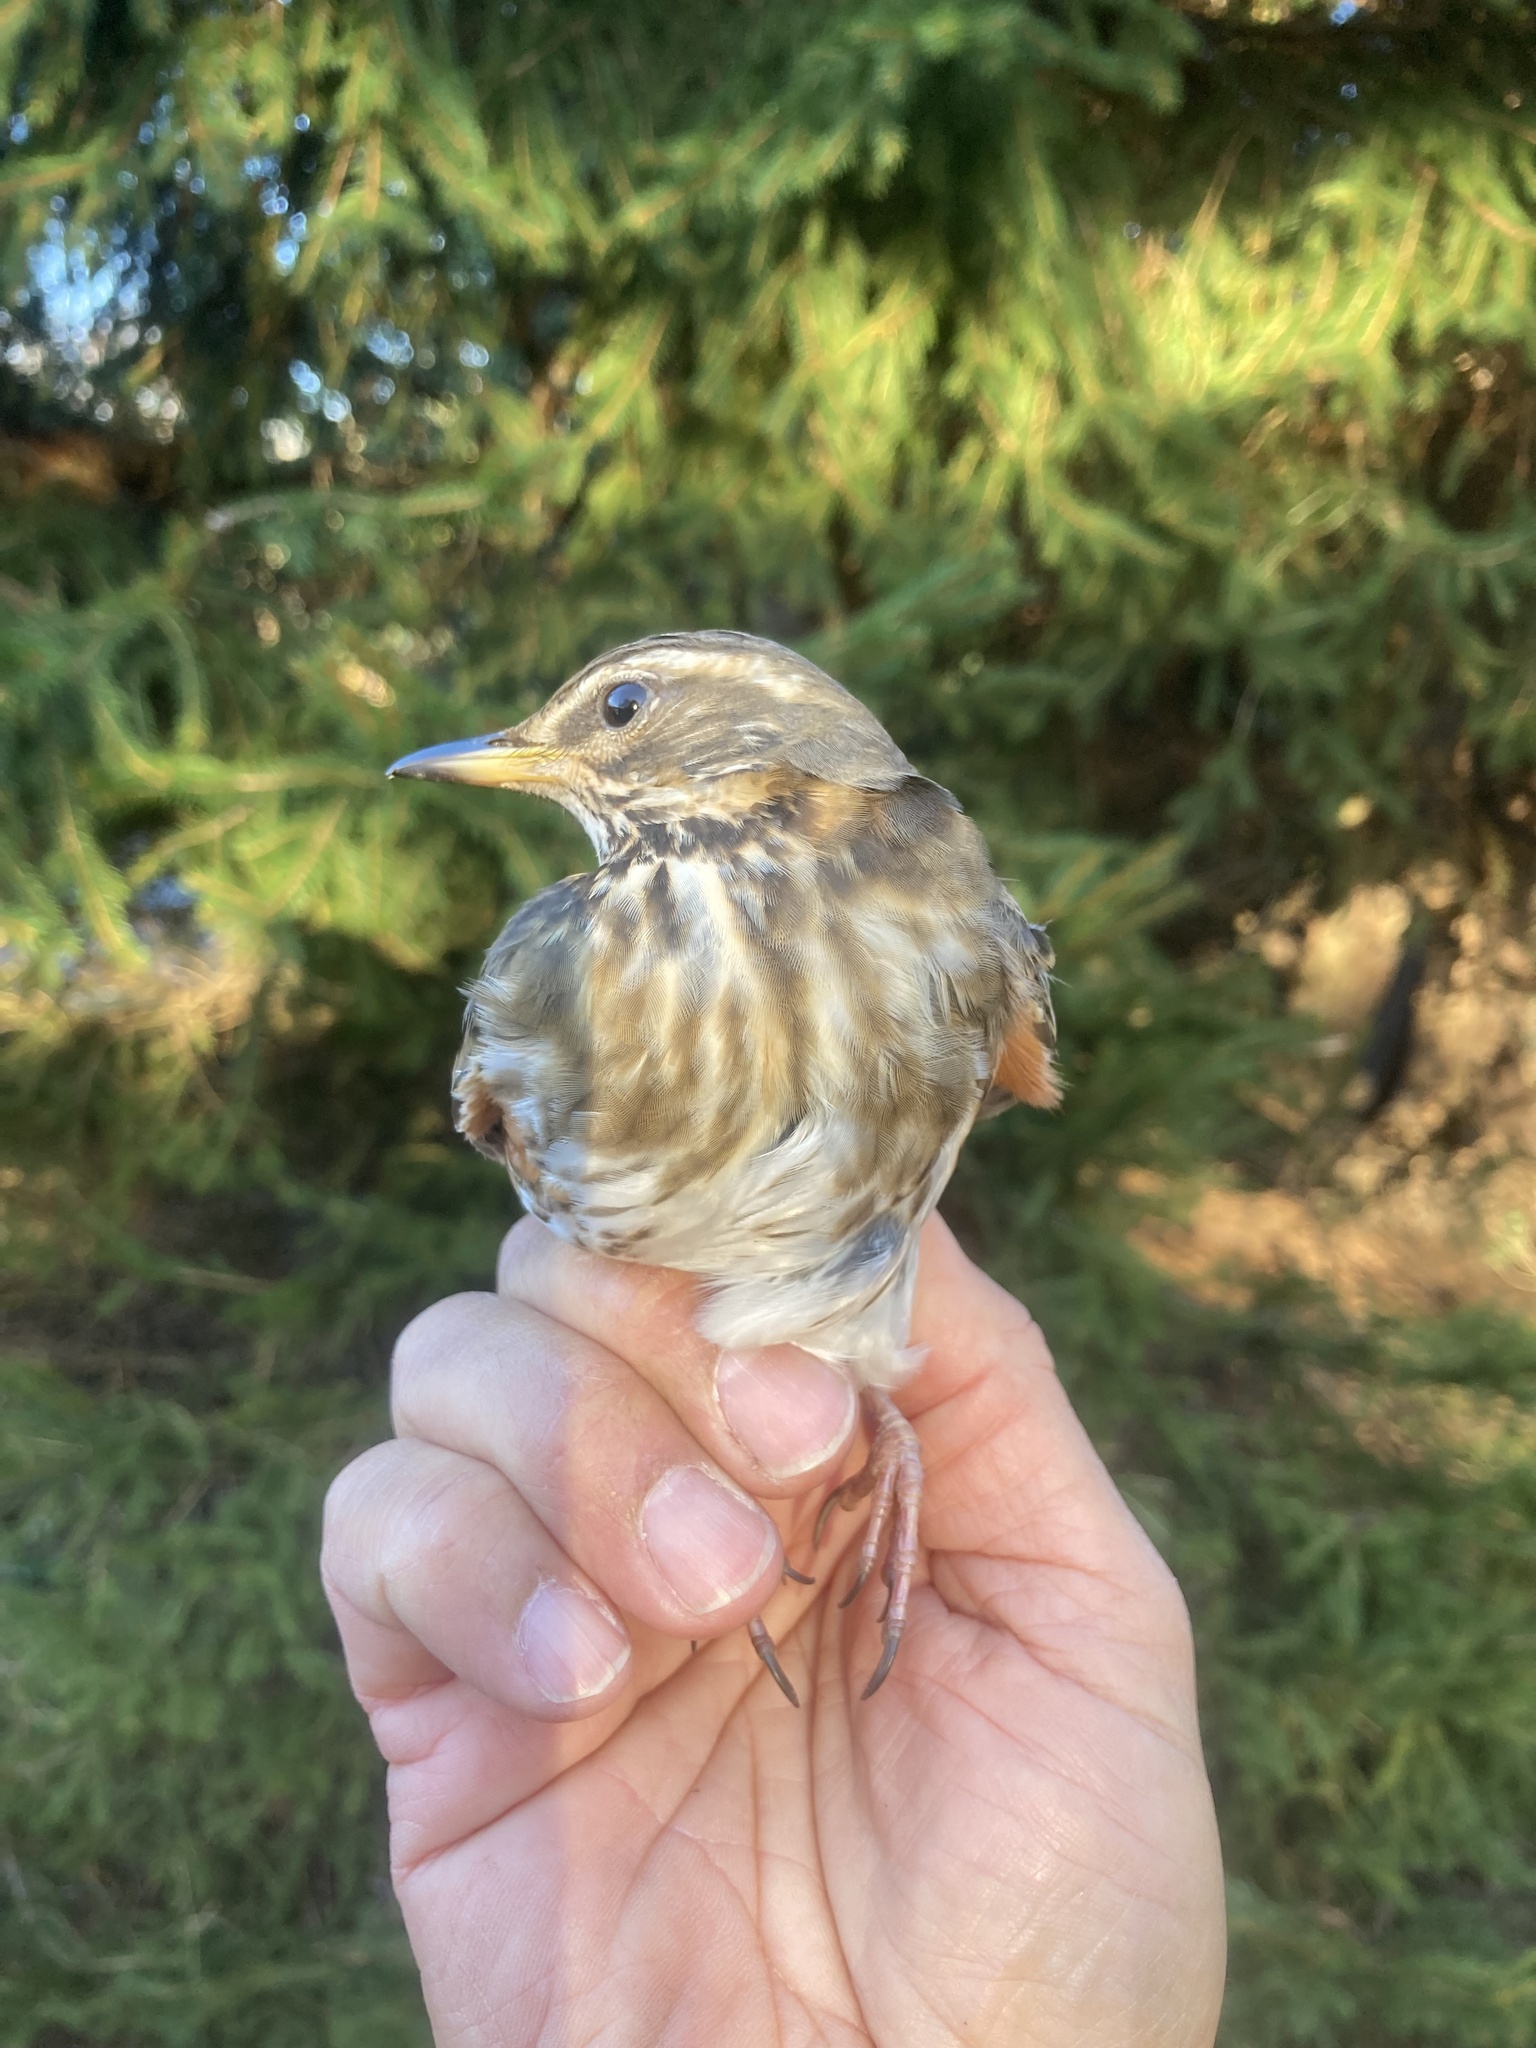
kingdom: Animalia
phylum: Chordata
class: Aves
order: Passeriformes
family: Turdidae
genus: Turdus
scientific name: Turdus iliacus
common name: Redwing
